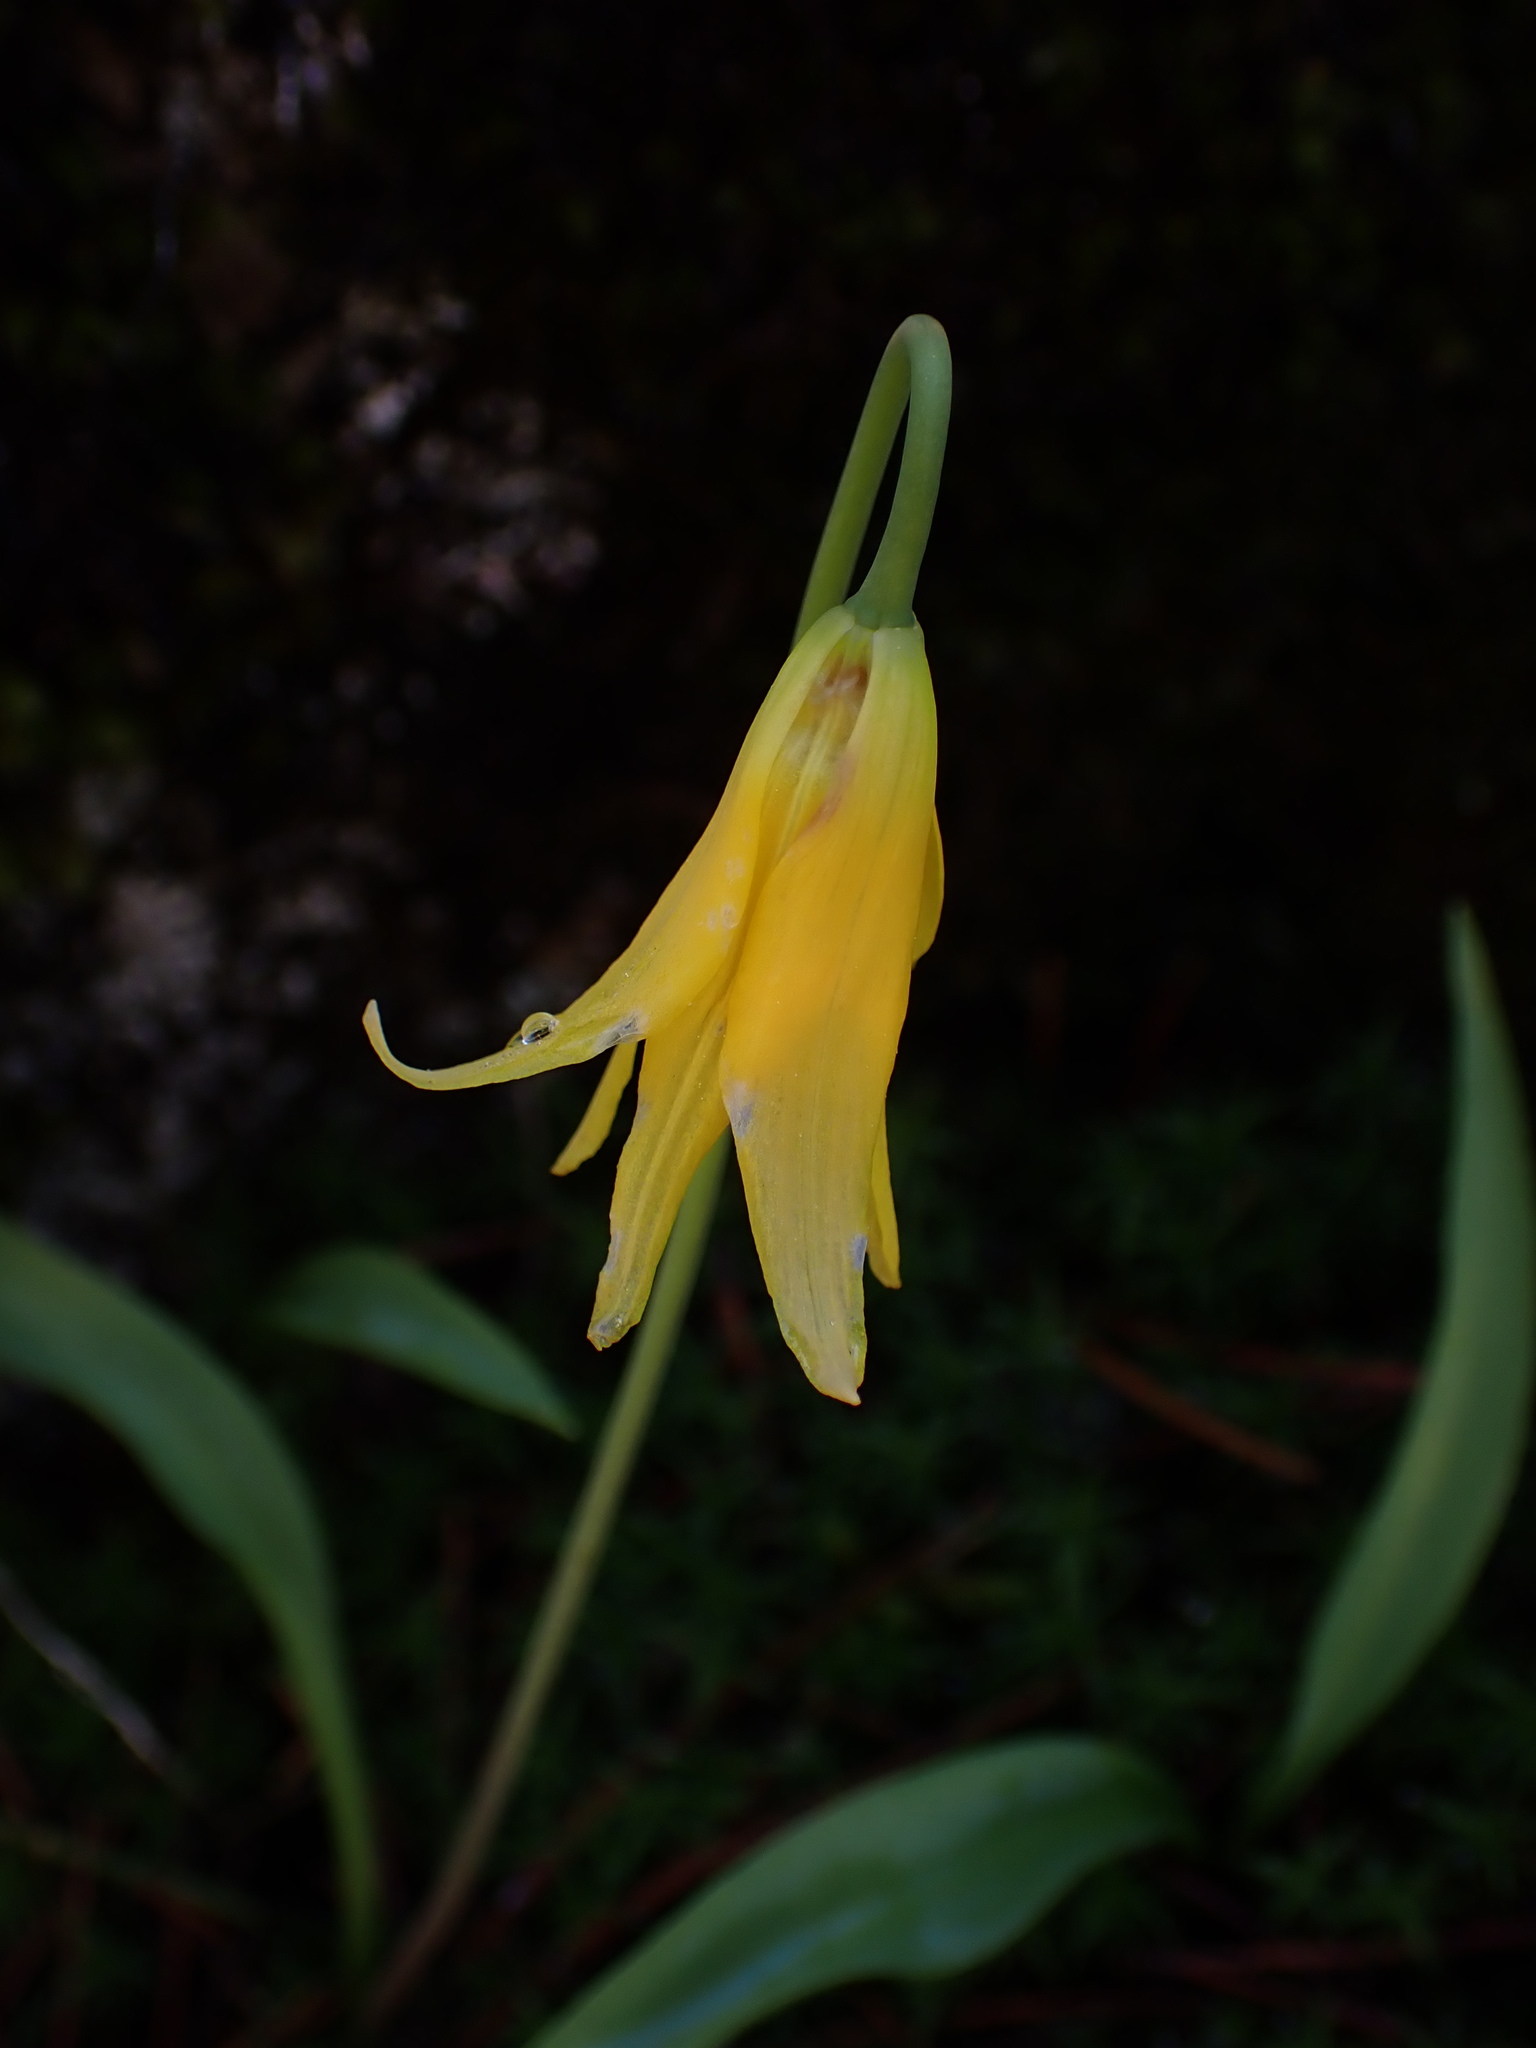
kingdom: Plantae
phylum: Tracheophyta
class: Liliopsida
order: Liliales
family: Liliaceae
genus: Erythronium
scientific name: Erythronium grandiflorum
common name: Avalanche-lily
